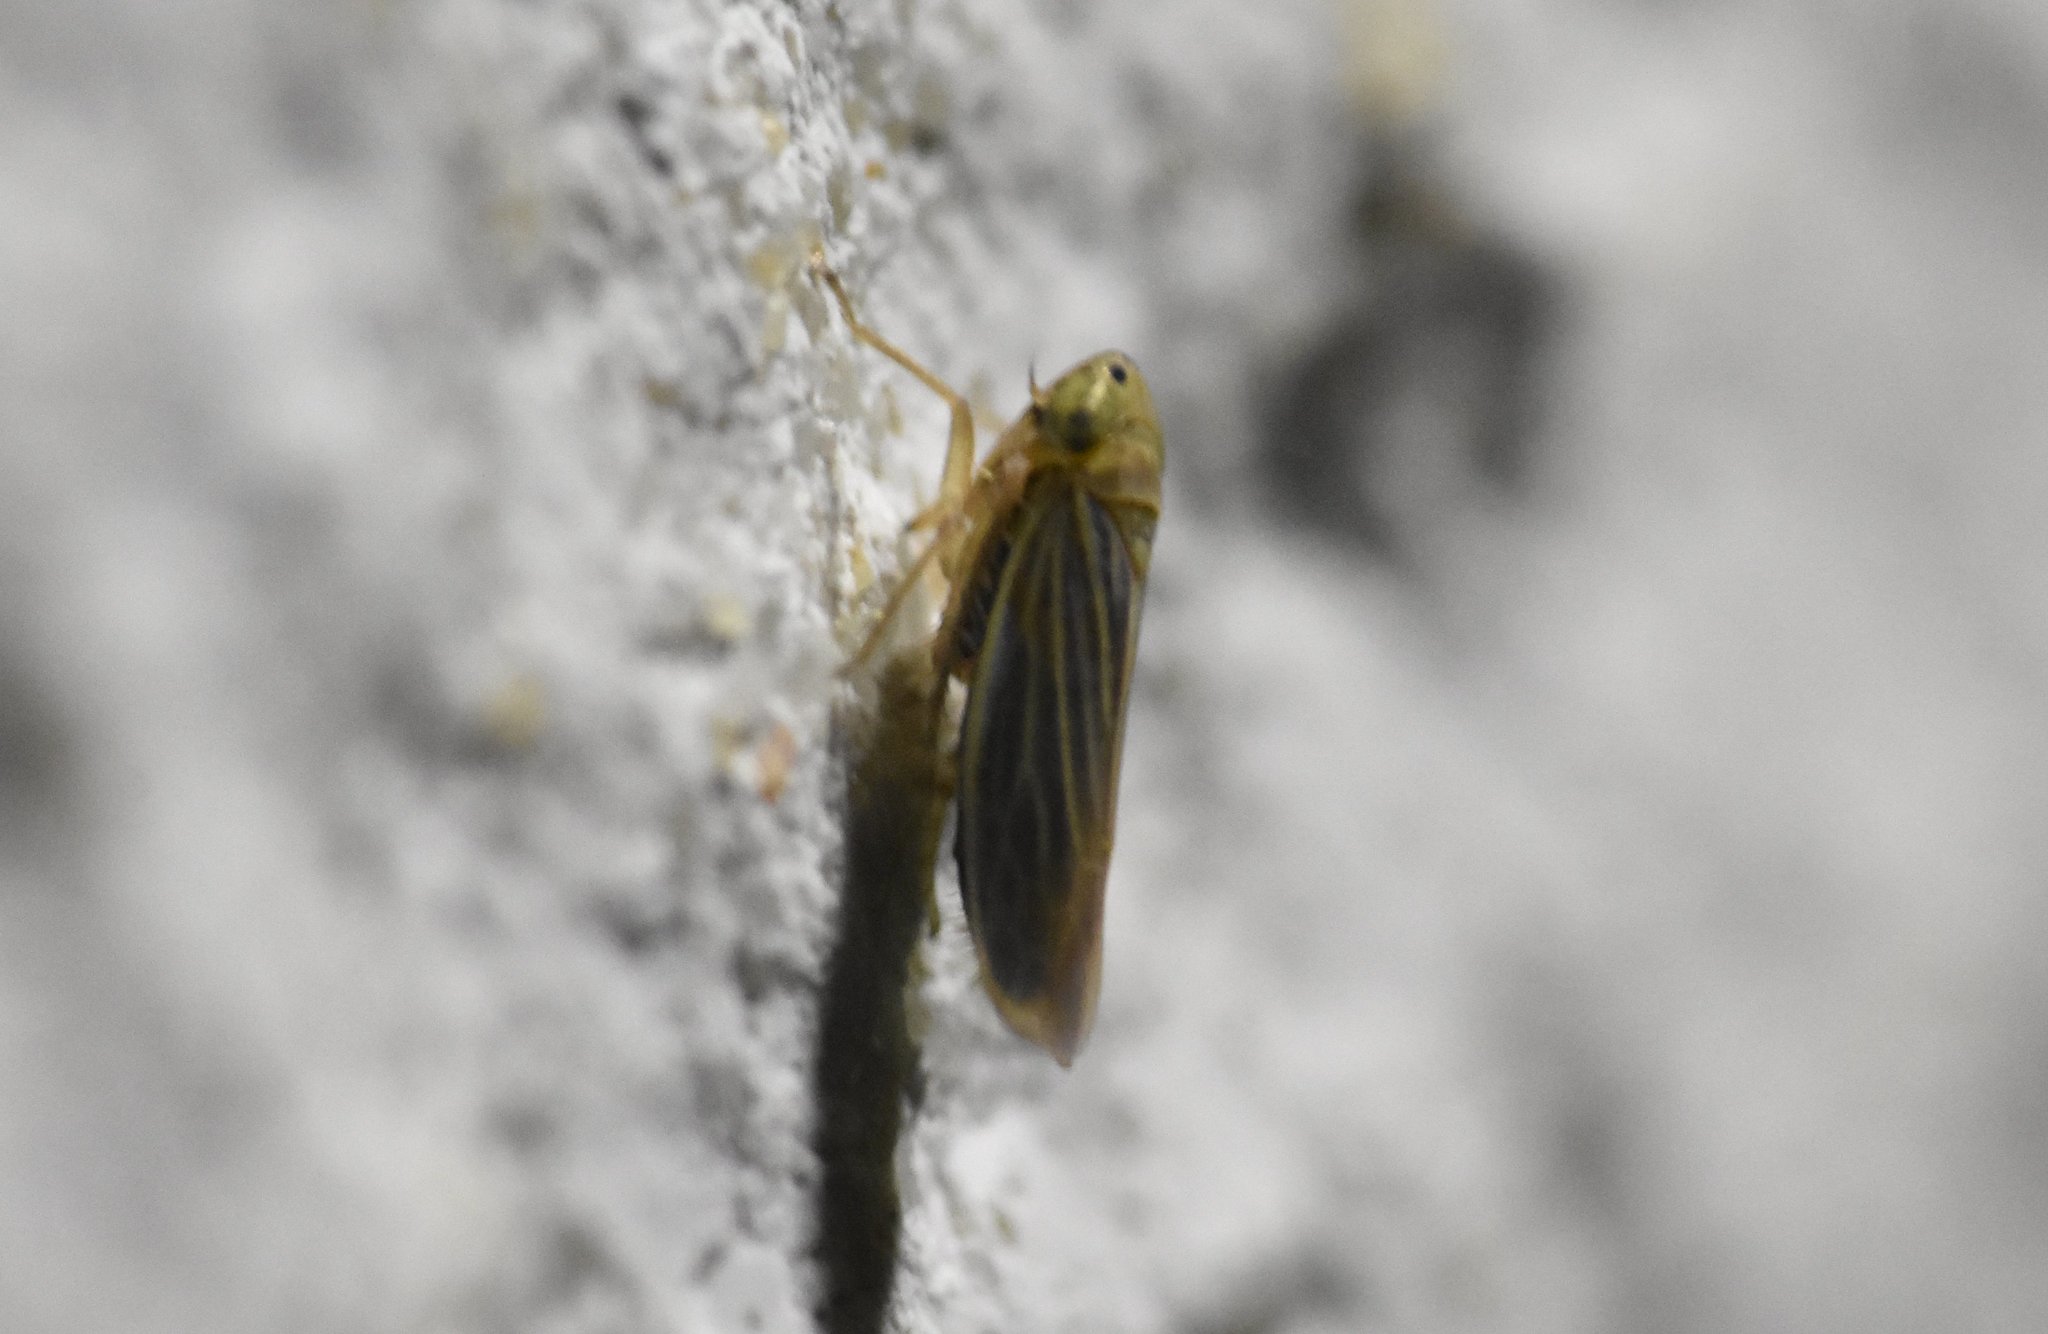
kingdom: Animalia
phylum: Arthropoda
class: Insecta
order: Hemiptera
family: Cicadellidae
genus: Graminella
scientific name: Graminella cognita
